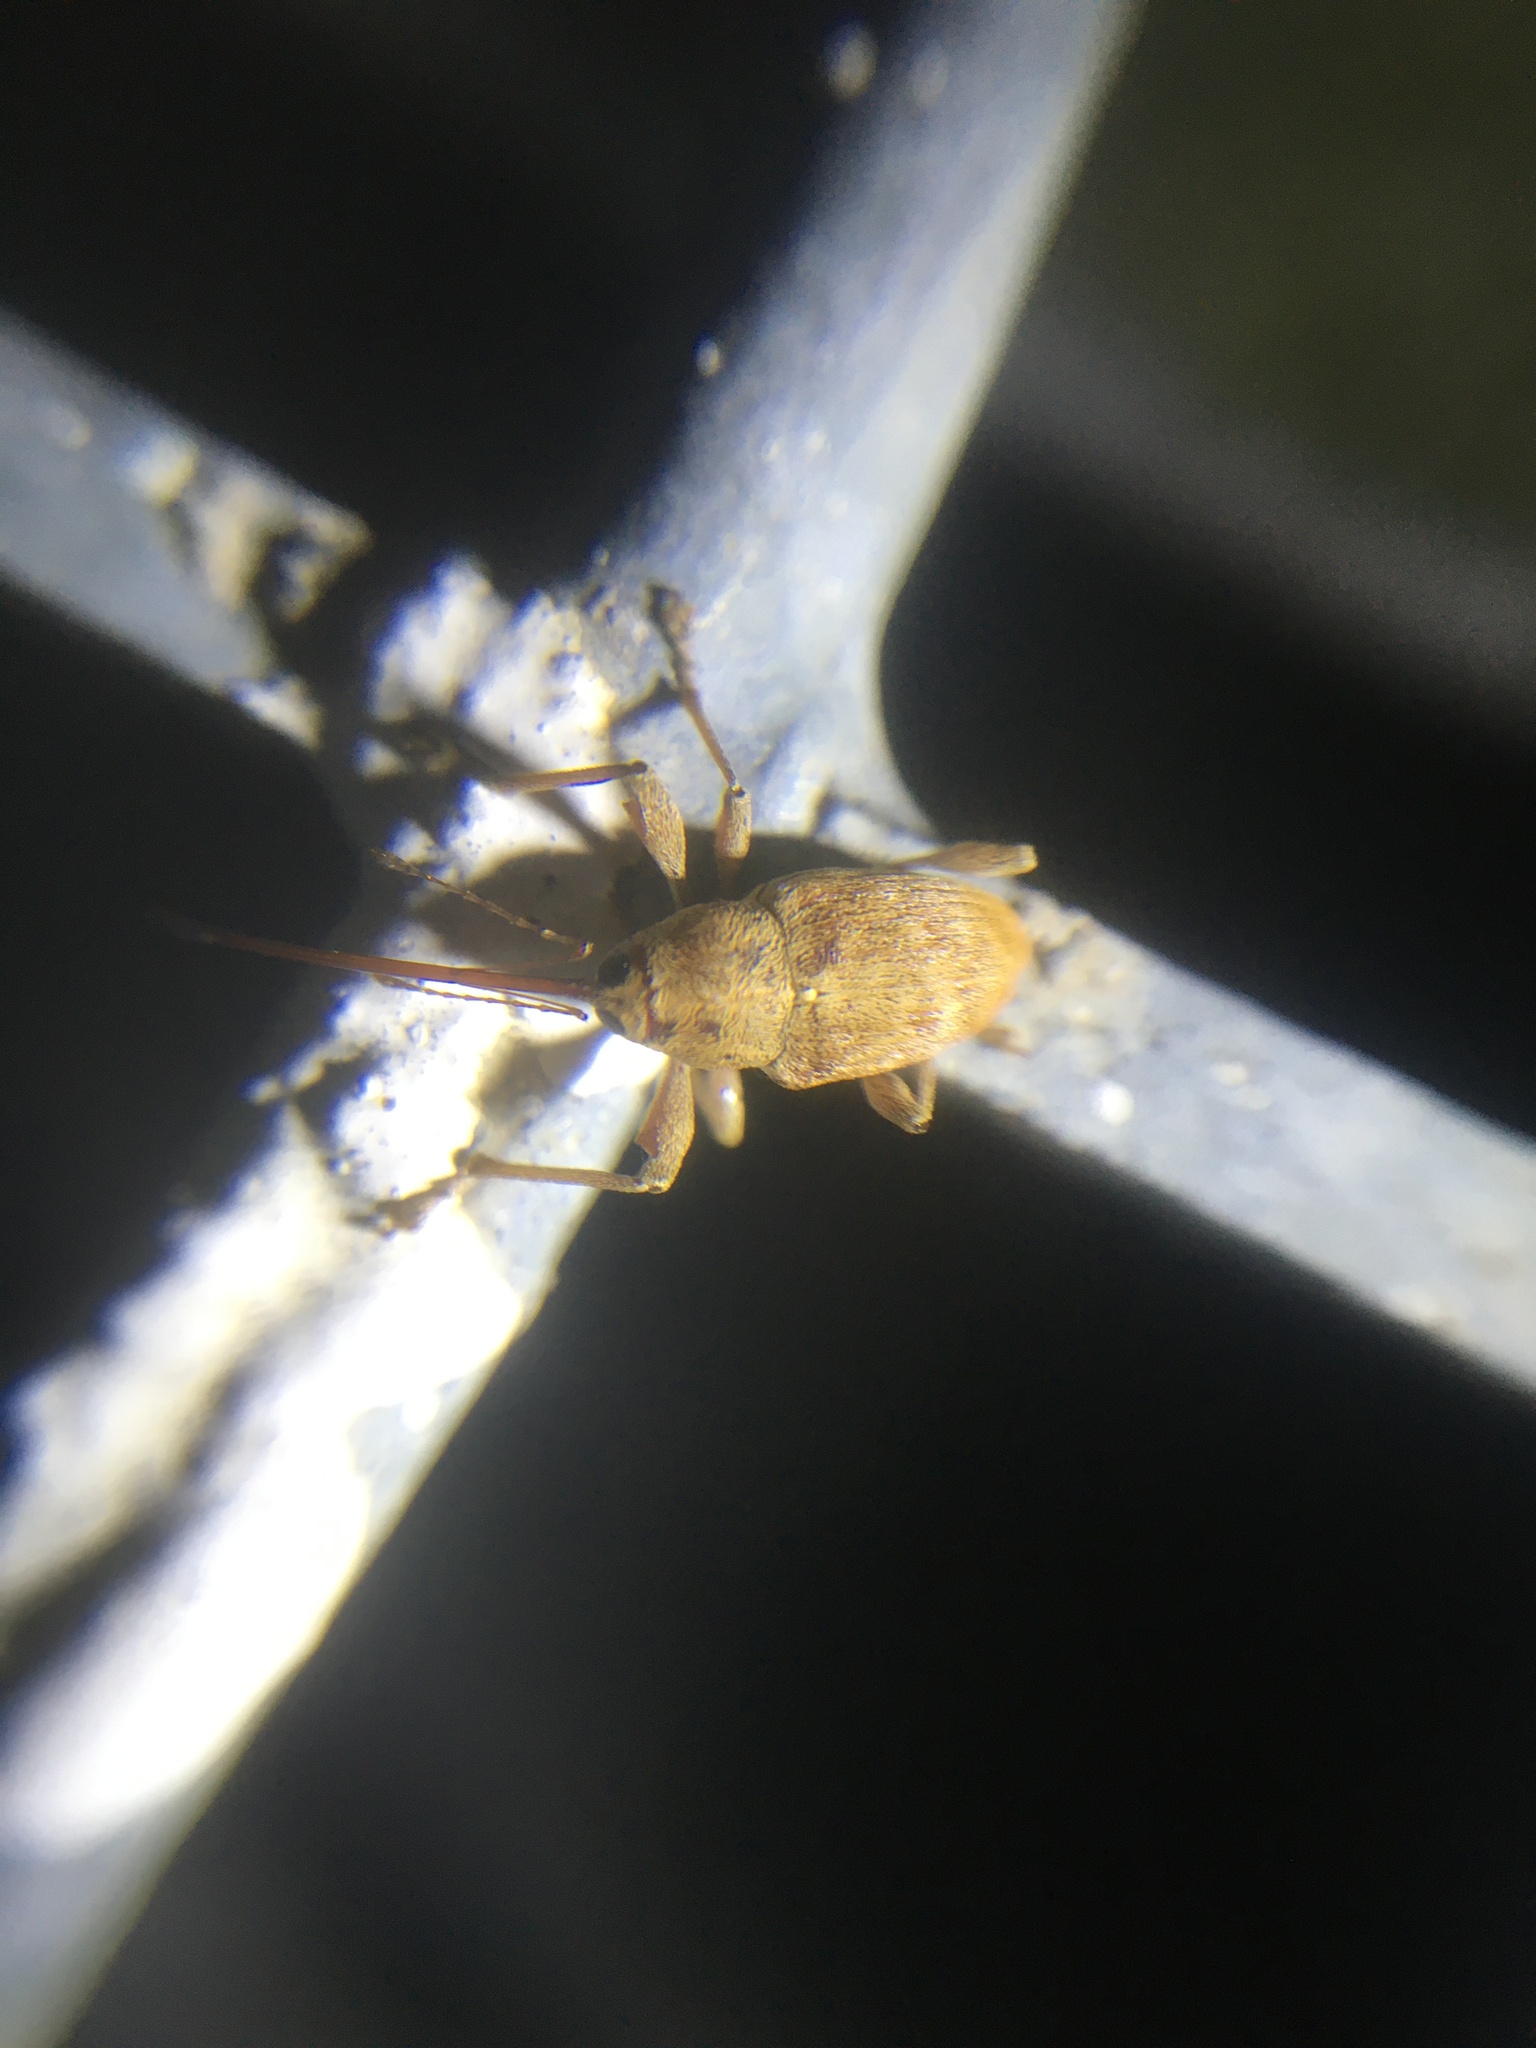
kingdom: Animalia
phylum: Arthropoda
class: Insecta
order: Coleoptera
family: Curculionidae
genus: Curculio
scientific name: Curculio elephas
